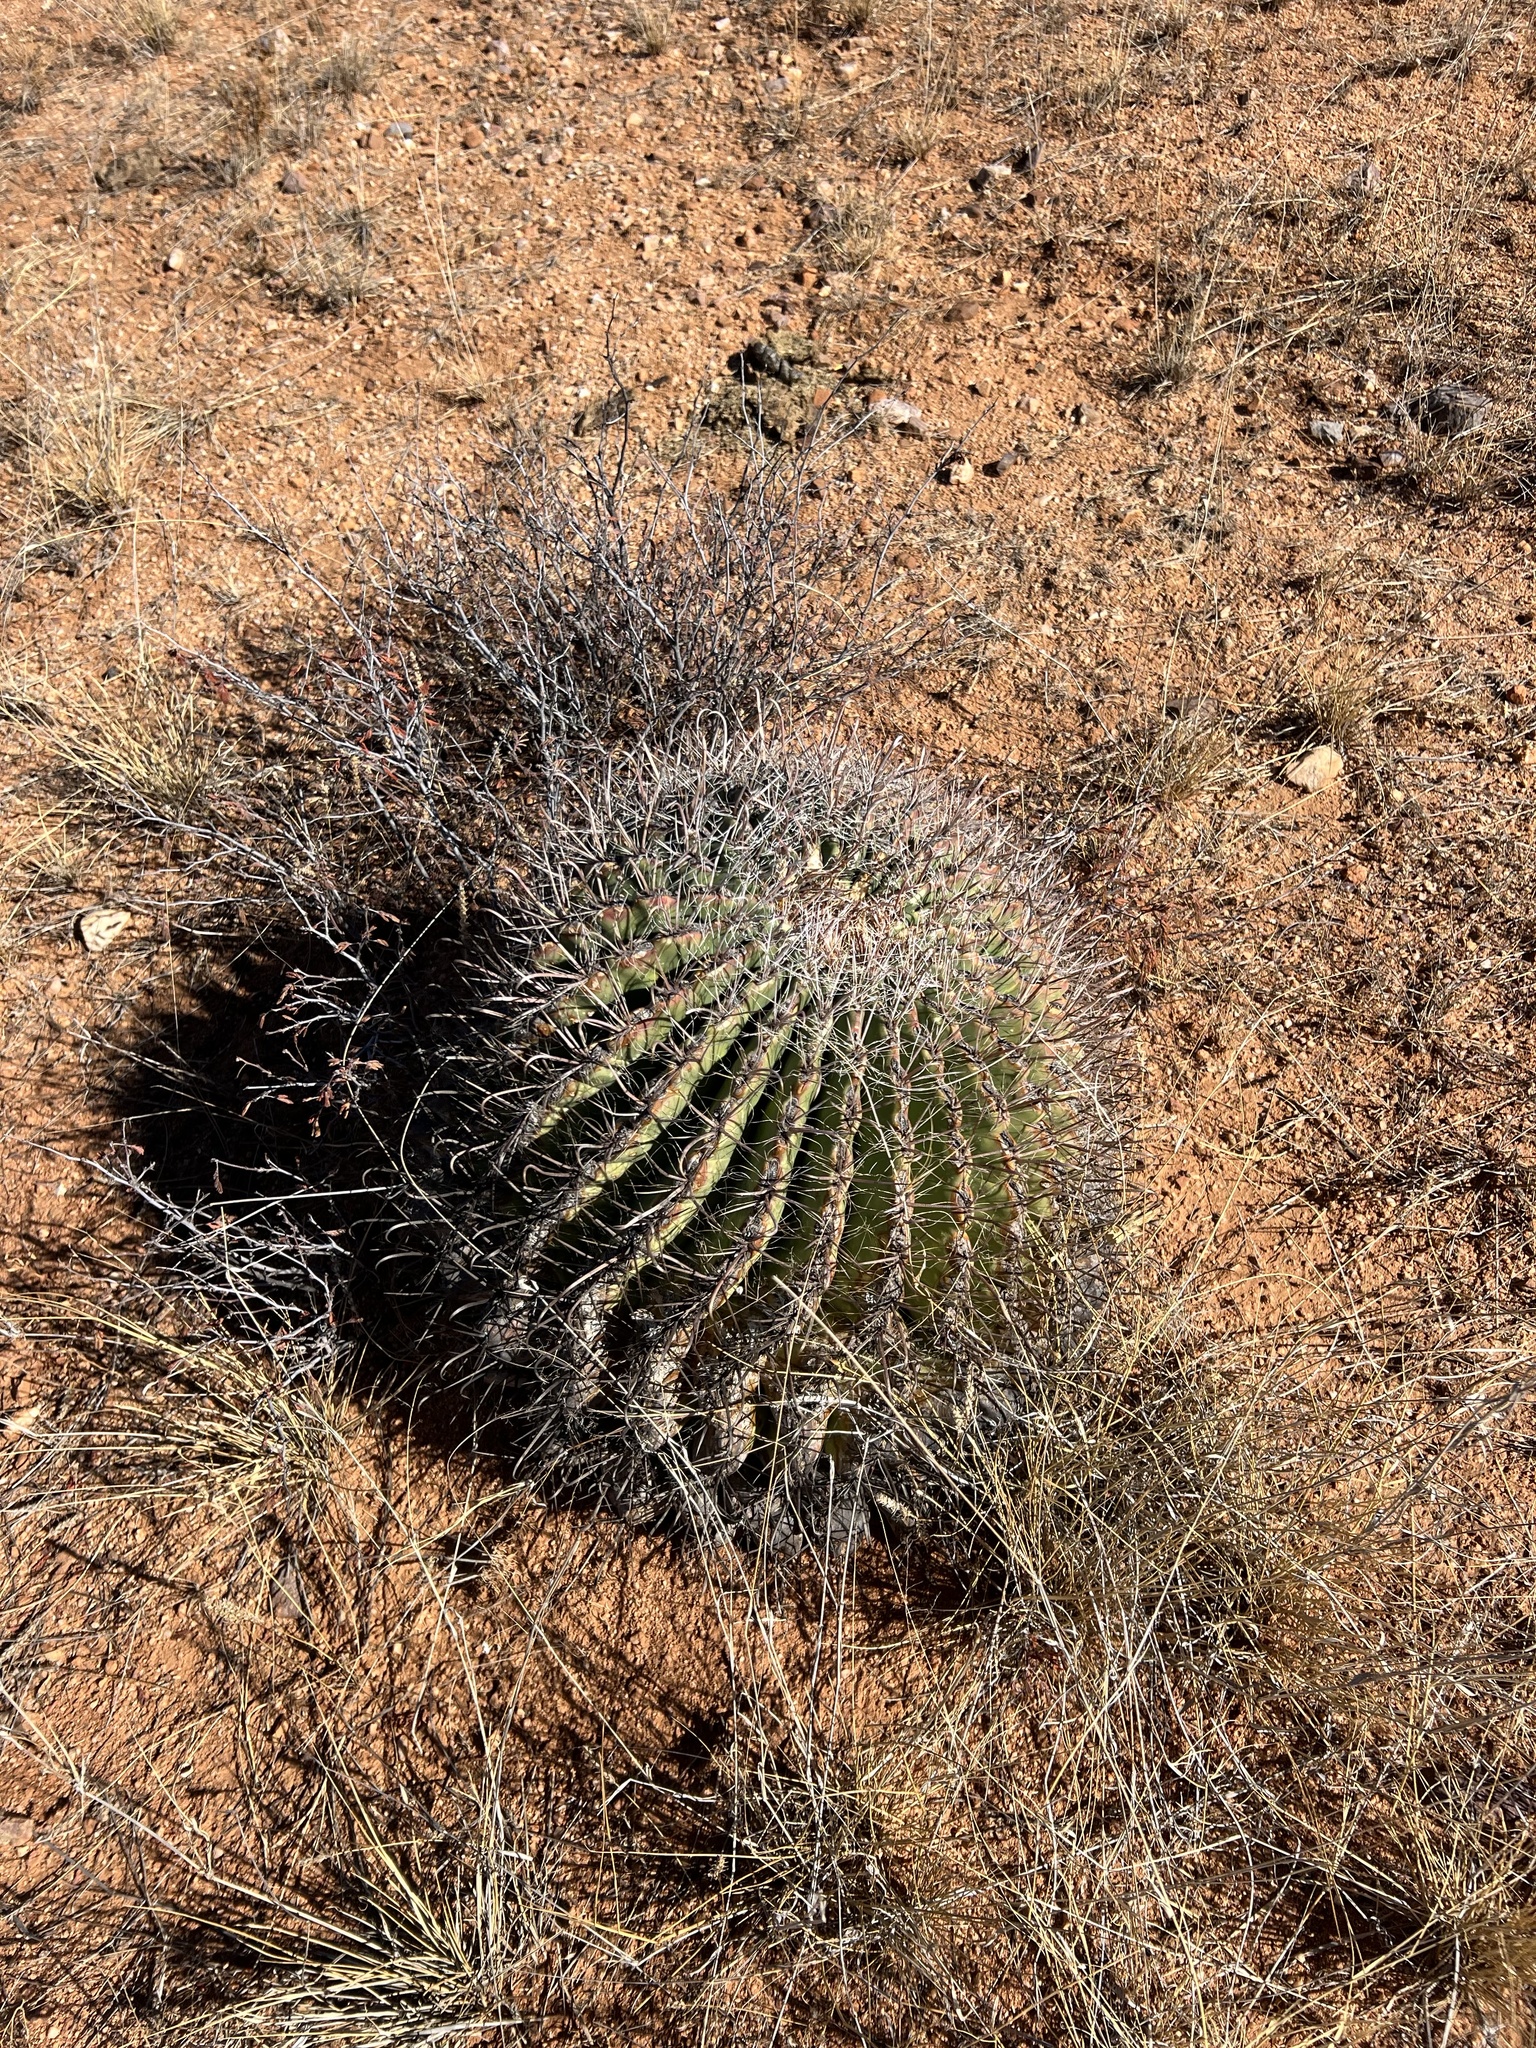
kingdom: Plantae
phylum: Tracheophyta
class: Magnoliopsida
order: Caryophyllales
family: Cactaceae
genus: Ferocactus
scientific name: Ferocactus wislizeni
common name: Candy barrel cactus
